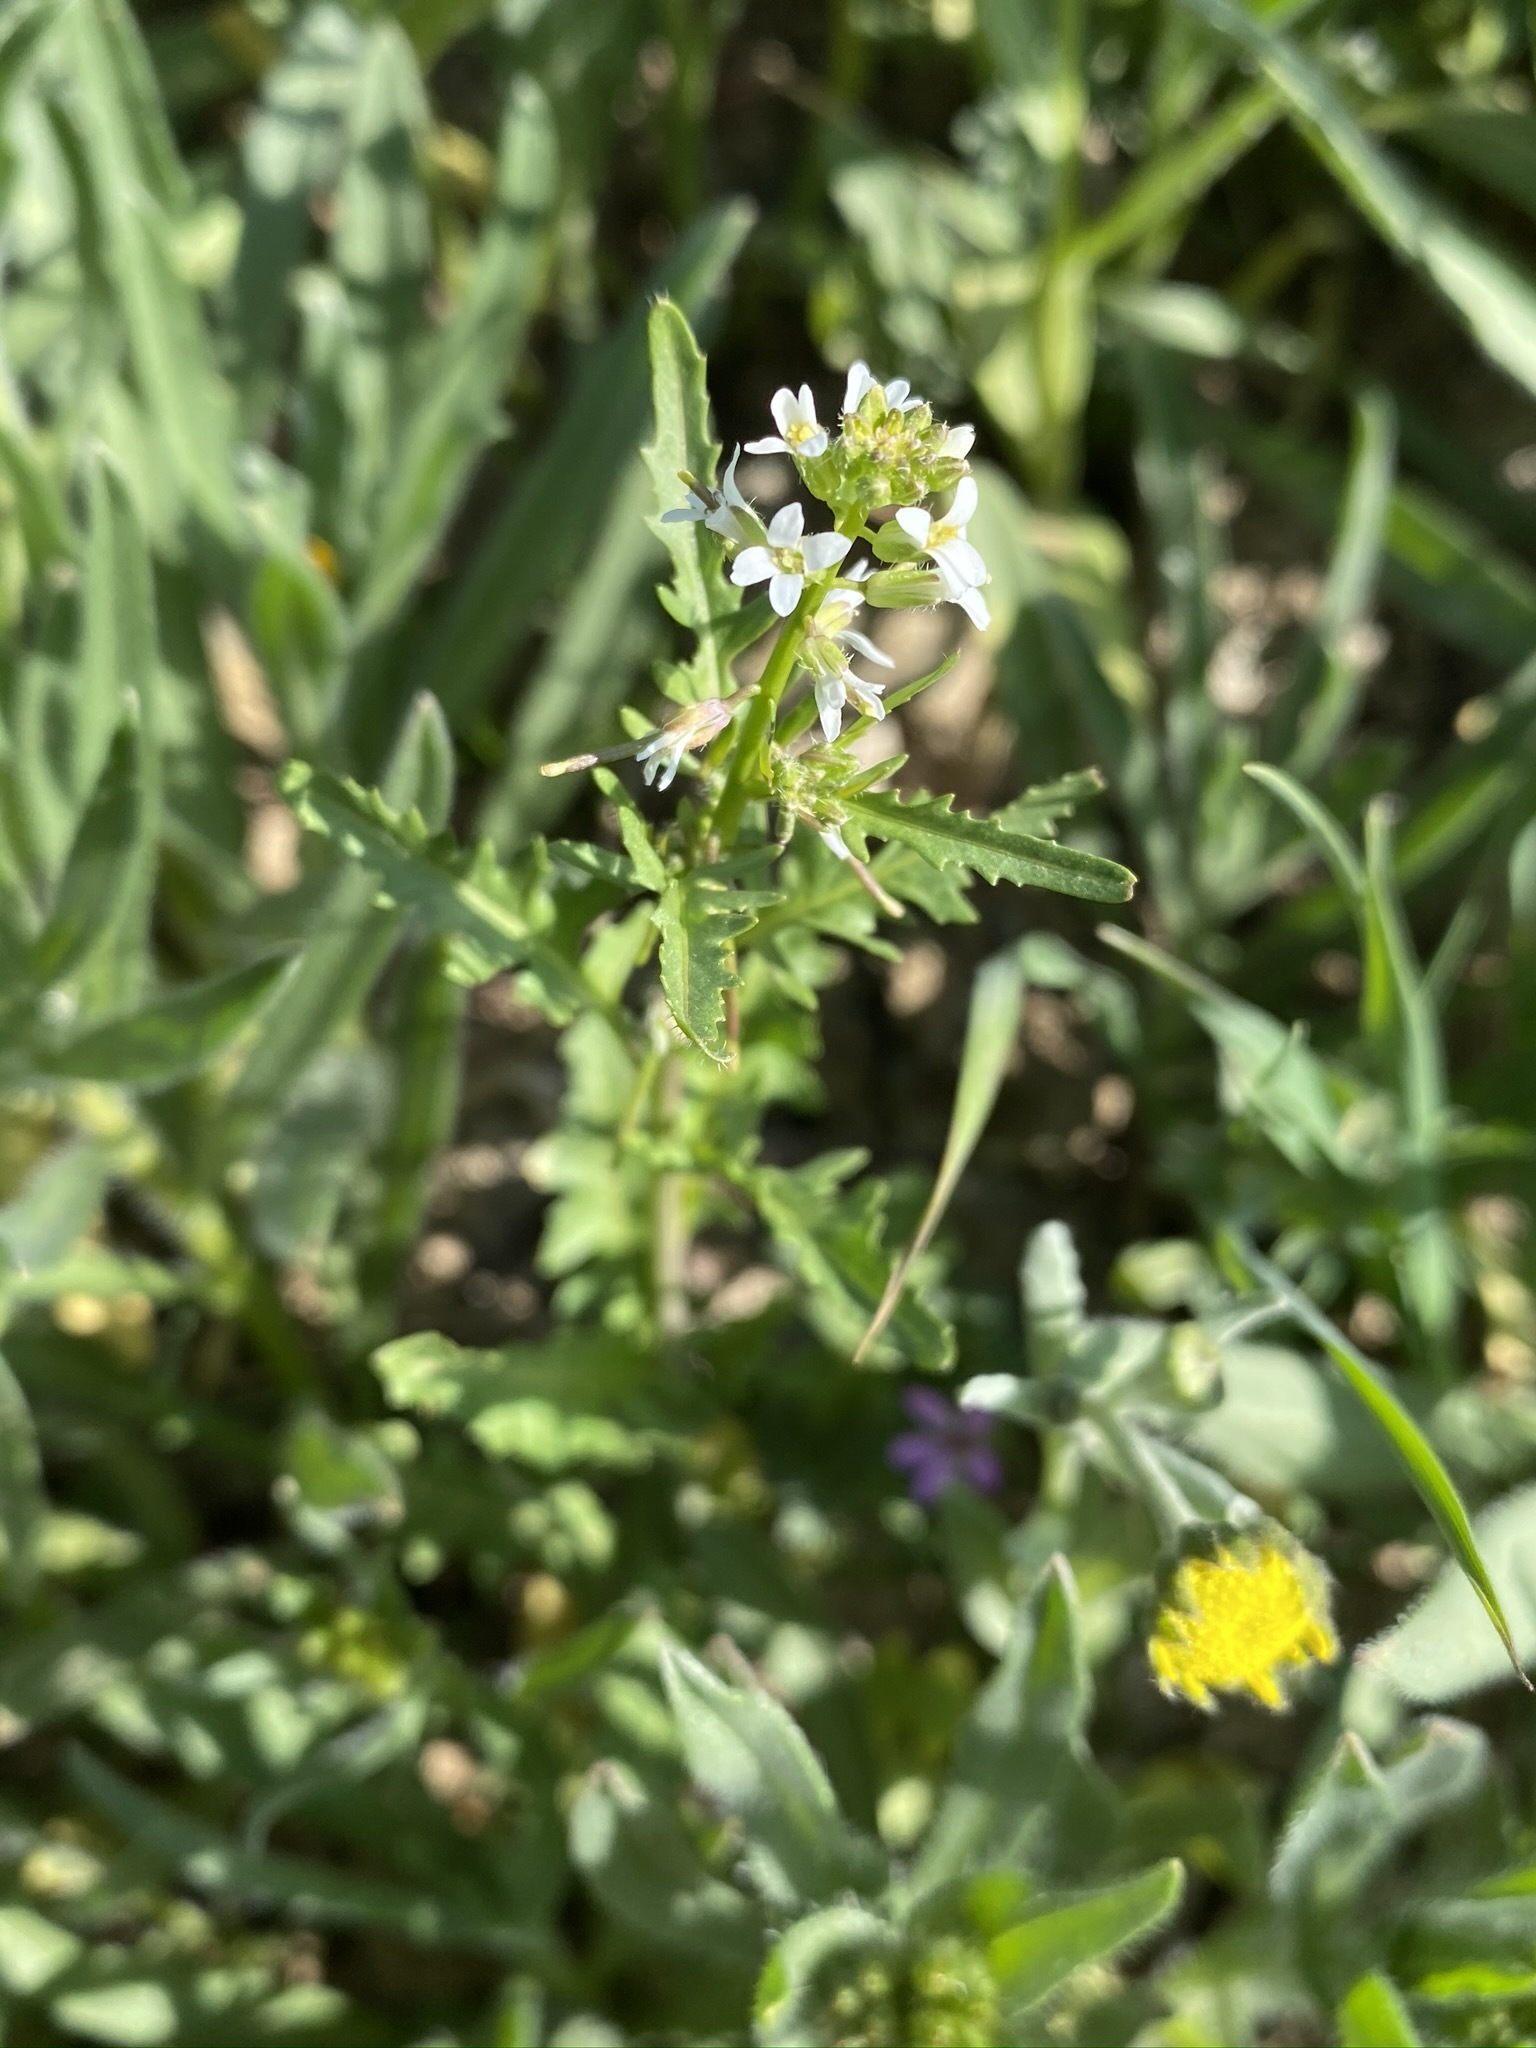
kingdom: Plantae
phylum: Tracheophyta
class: Magnoliopsida
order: Brassicales
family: Brassicaceae
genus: Streptanthus
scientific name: Streptanthus lasiophyllus
